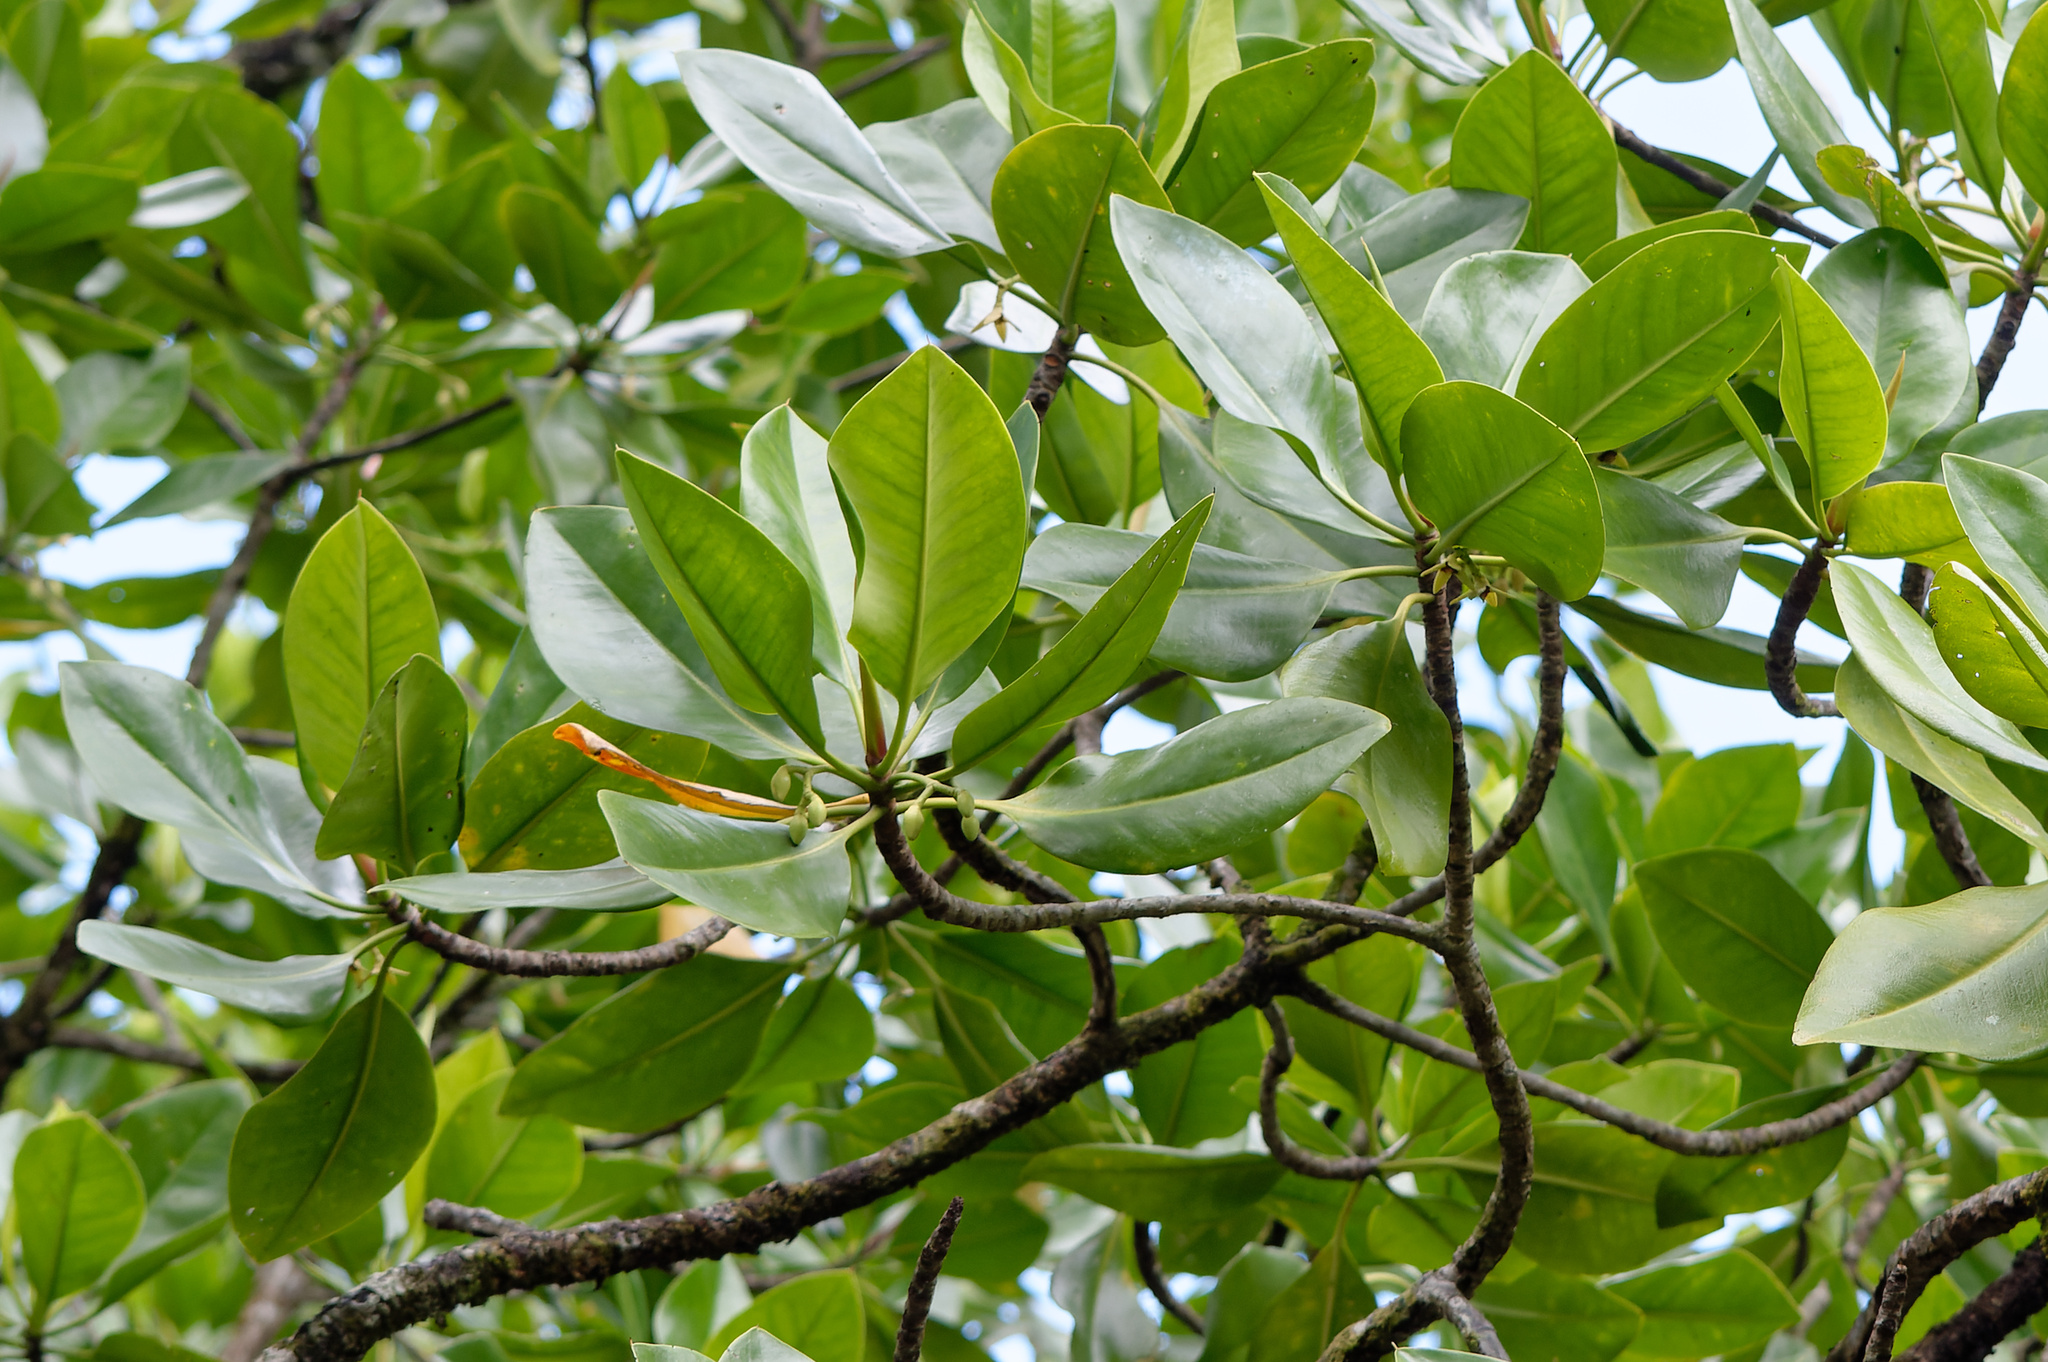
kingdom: Plantae
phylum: Tracheophyta
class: Magnoliopsida
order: Malpighiales
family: Rhizophoraceae
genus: Rhizophora
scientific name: Rhizophora stylosa
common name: Red mangrove
